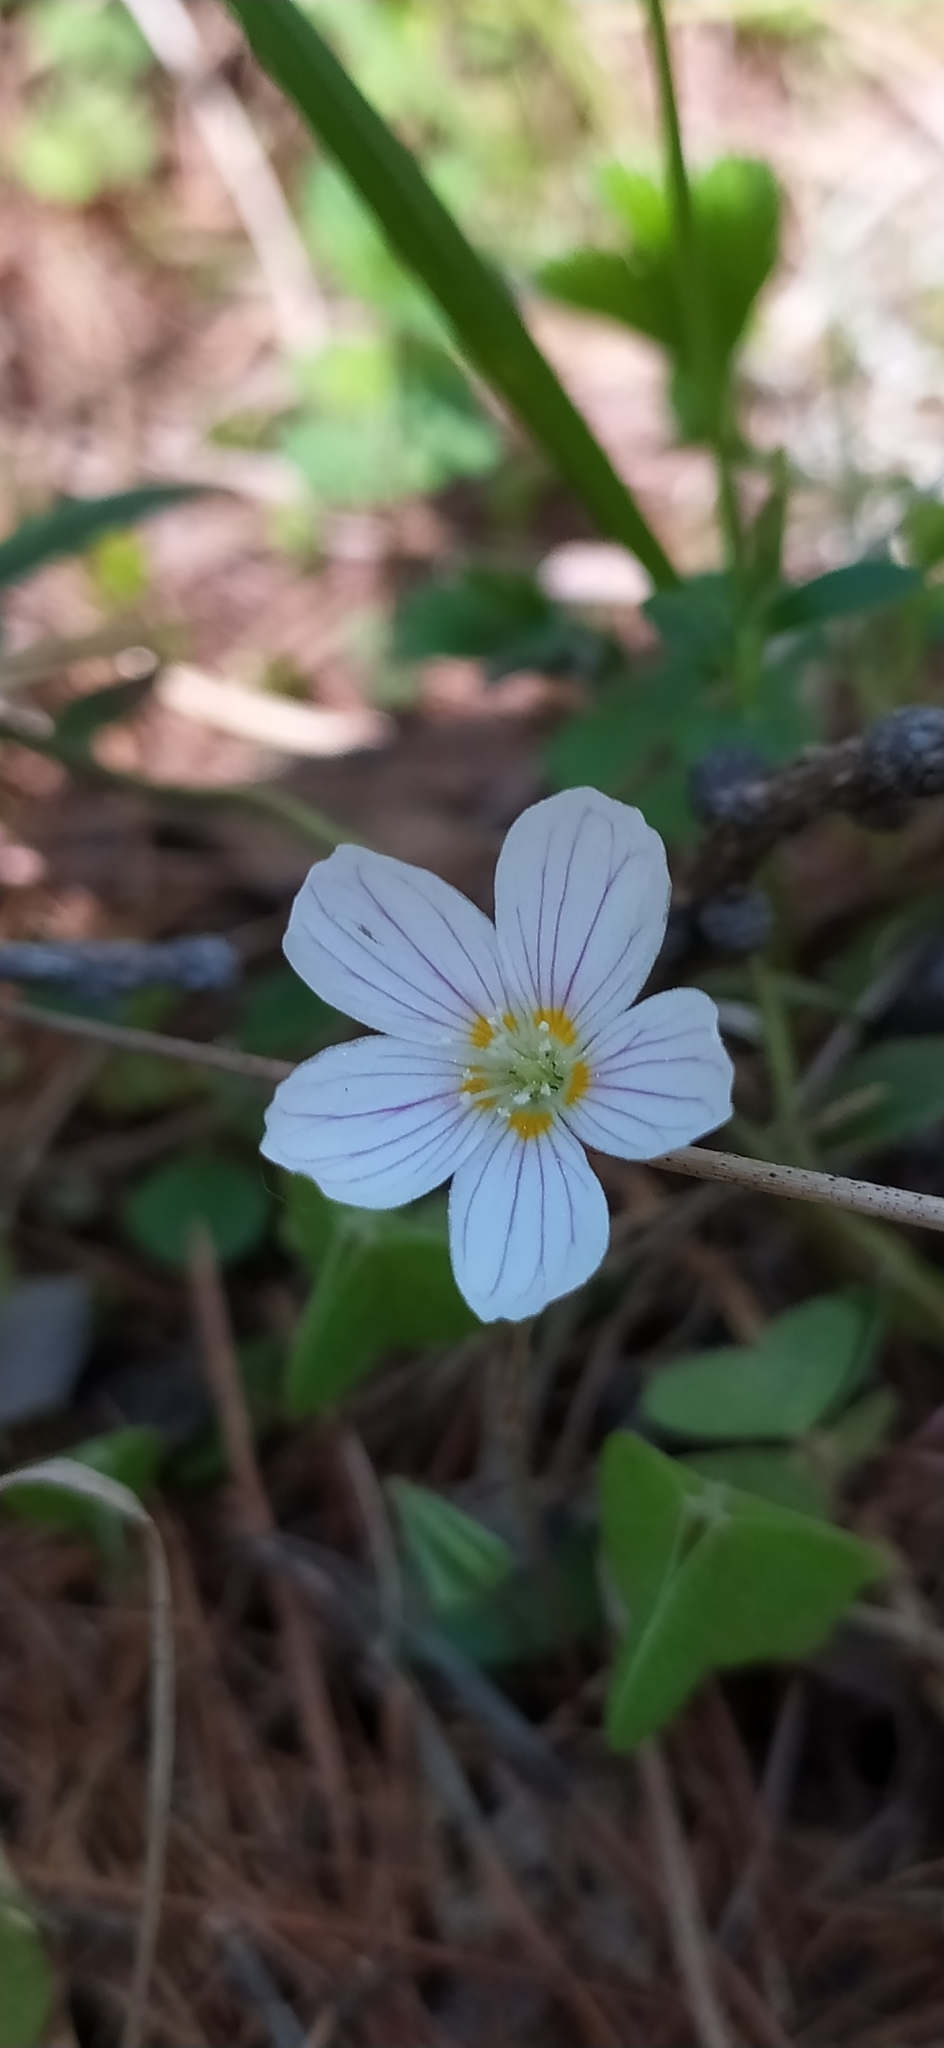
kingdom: Plantae
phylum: Tracheophyta
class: Magnoliopsida
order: Oxalidales
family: Oxalidaceae
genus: Oxalis
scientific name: Oxalis acetosella
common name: Wood-sorrel
